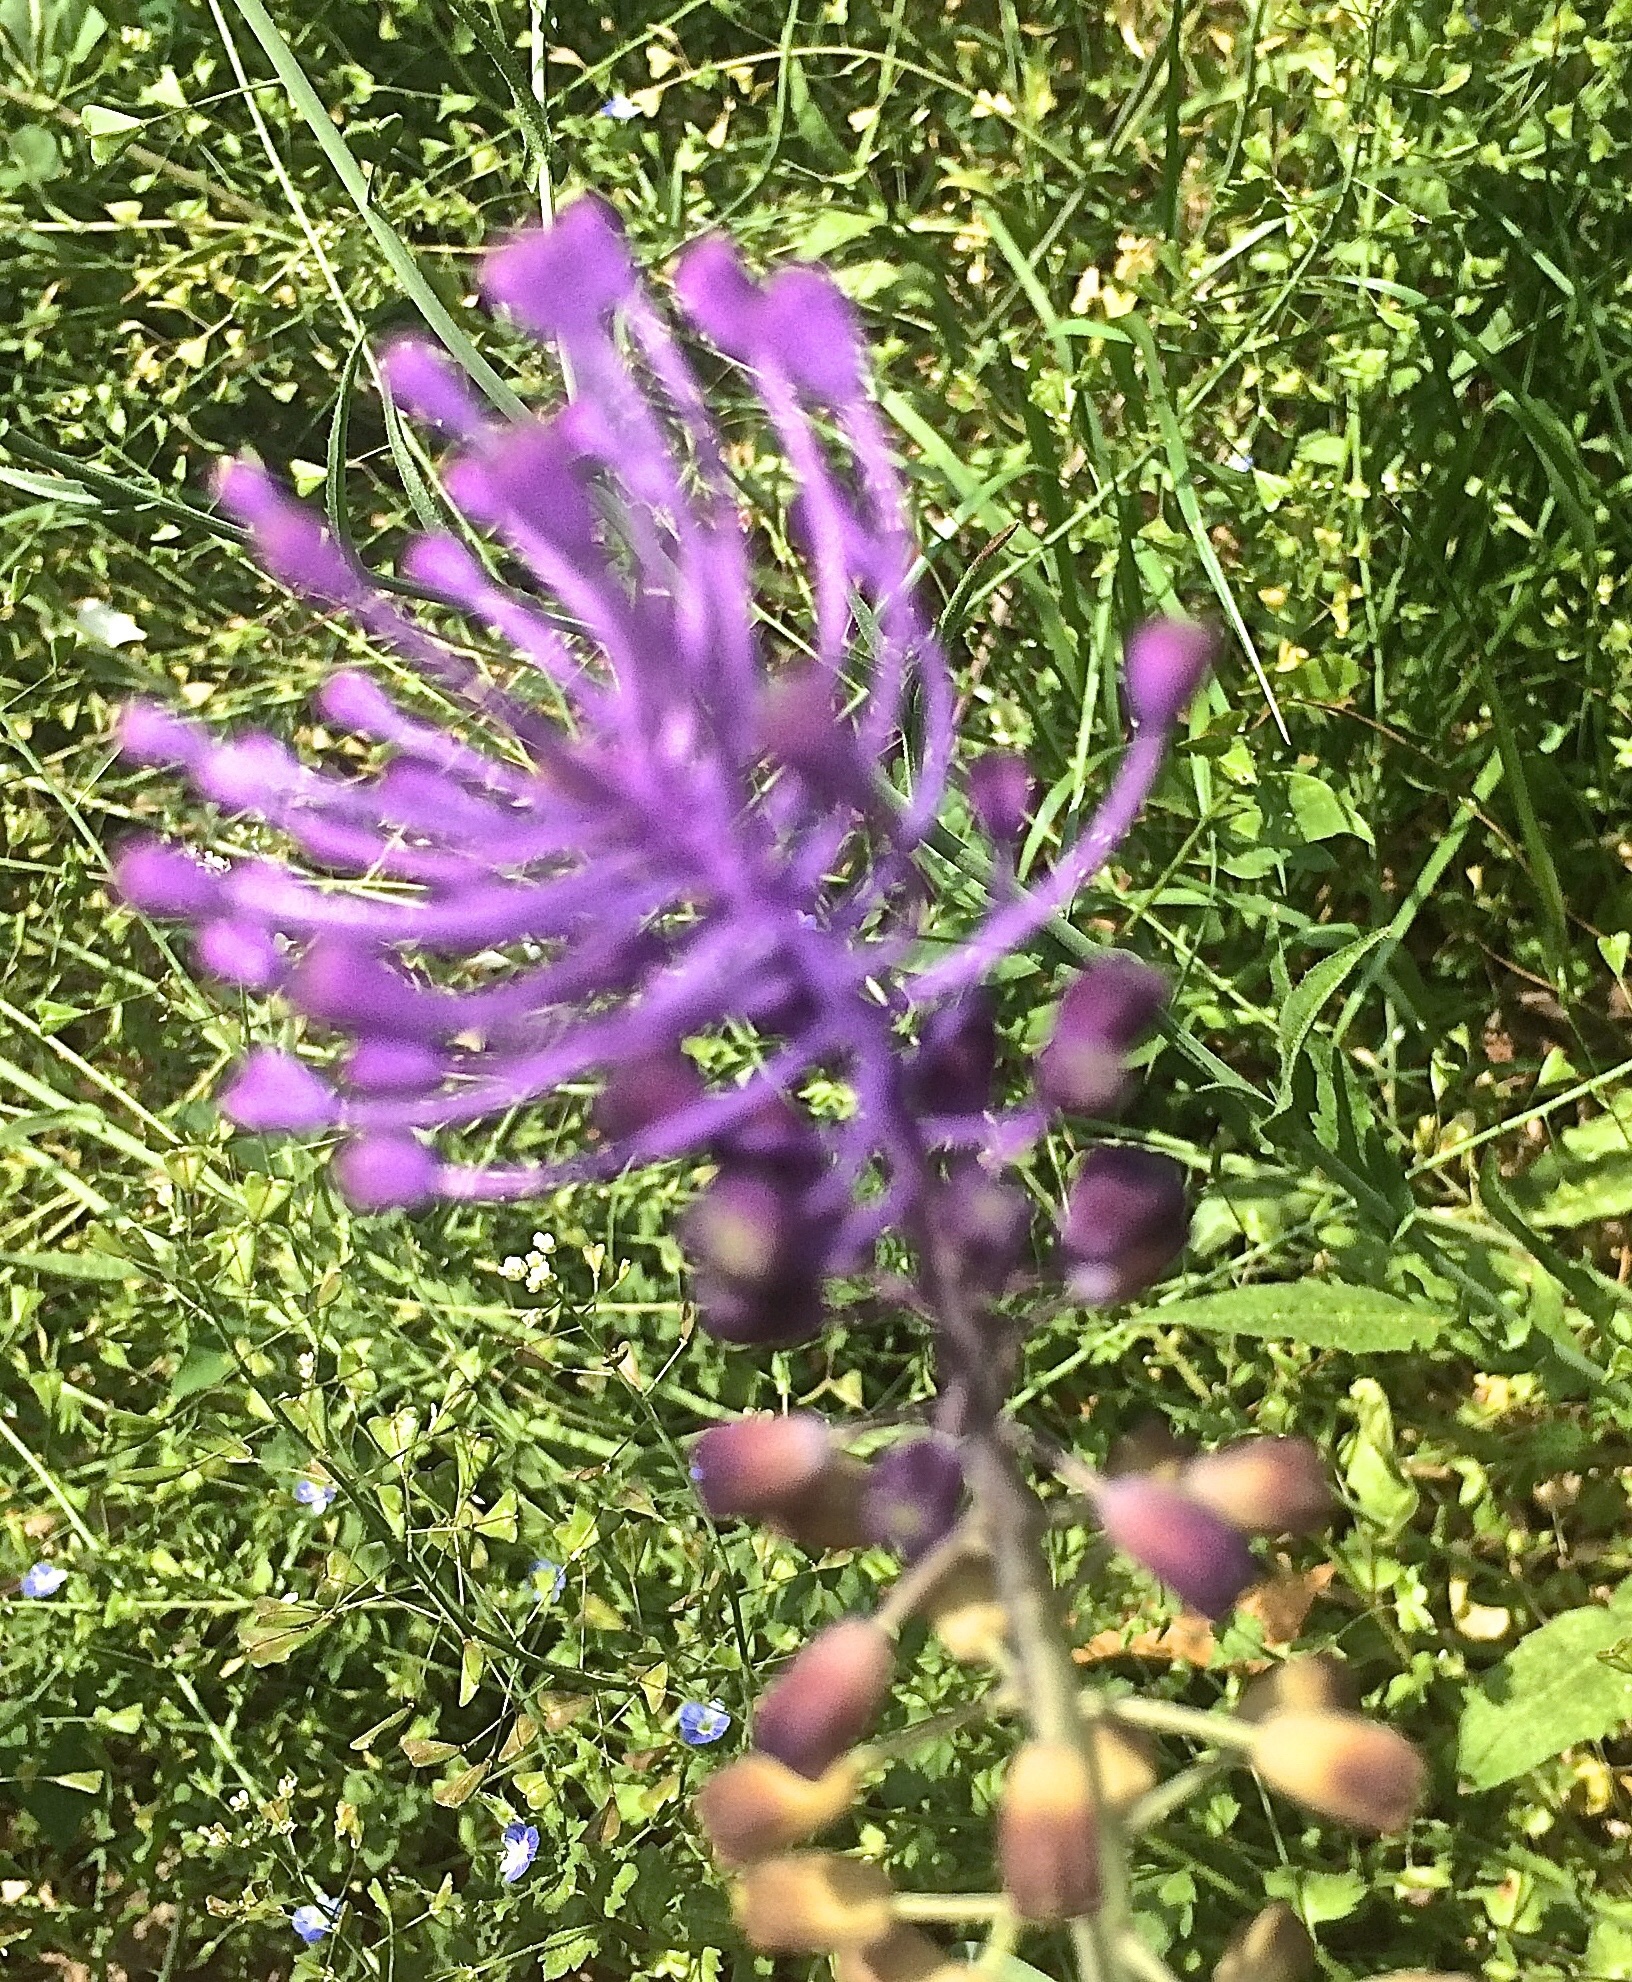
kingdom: Plantae
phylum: Tracheophyta
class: Liliopsida
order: Asparagales
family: Asparagaceae
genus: Muscari
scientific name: Muscari comosum
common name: Tassel hyacinth
